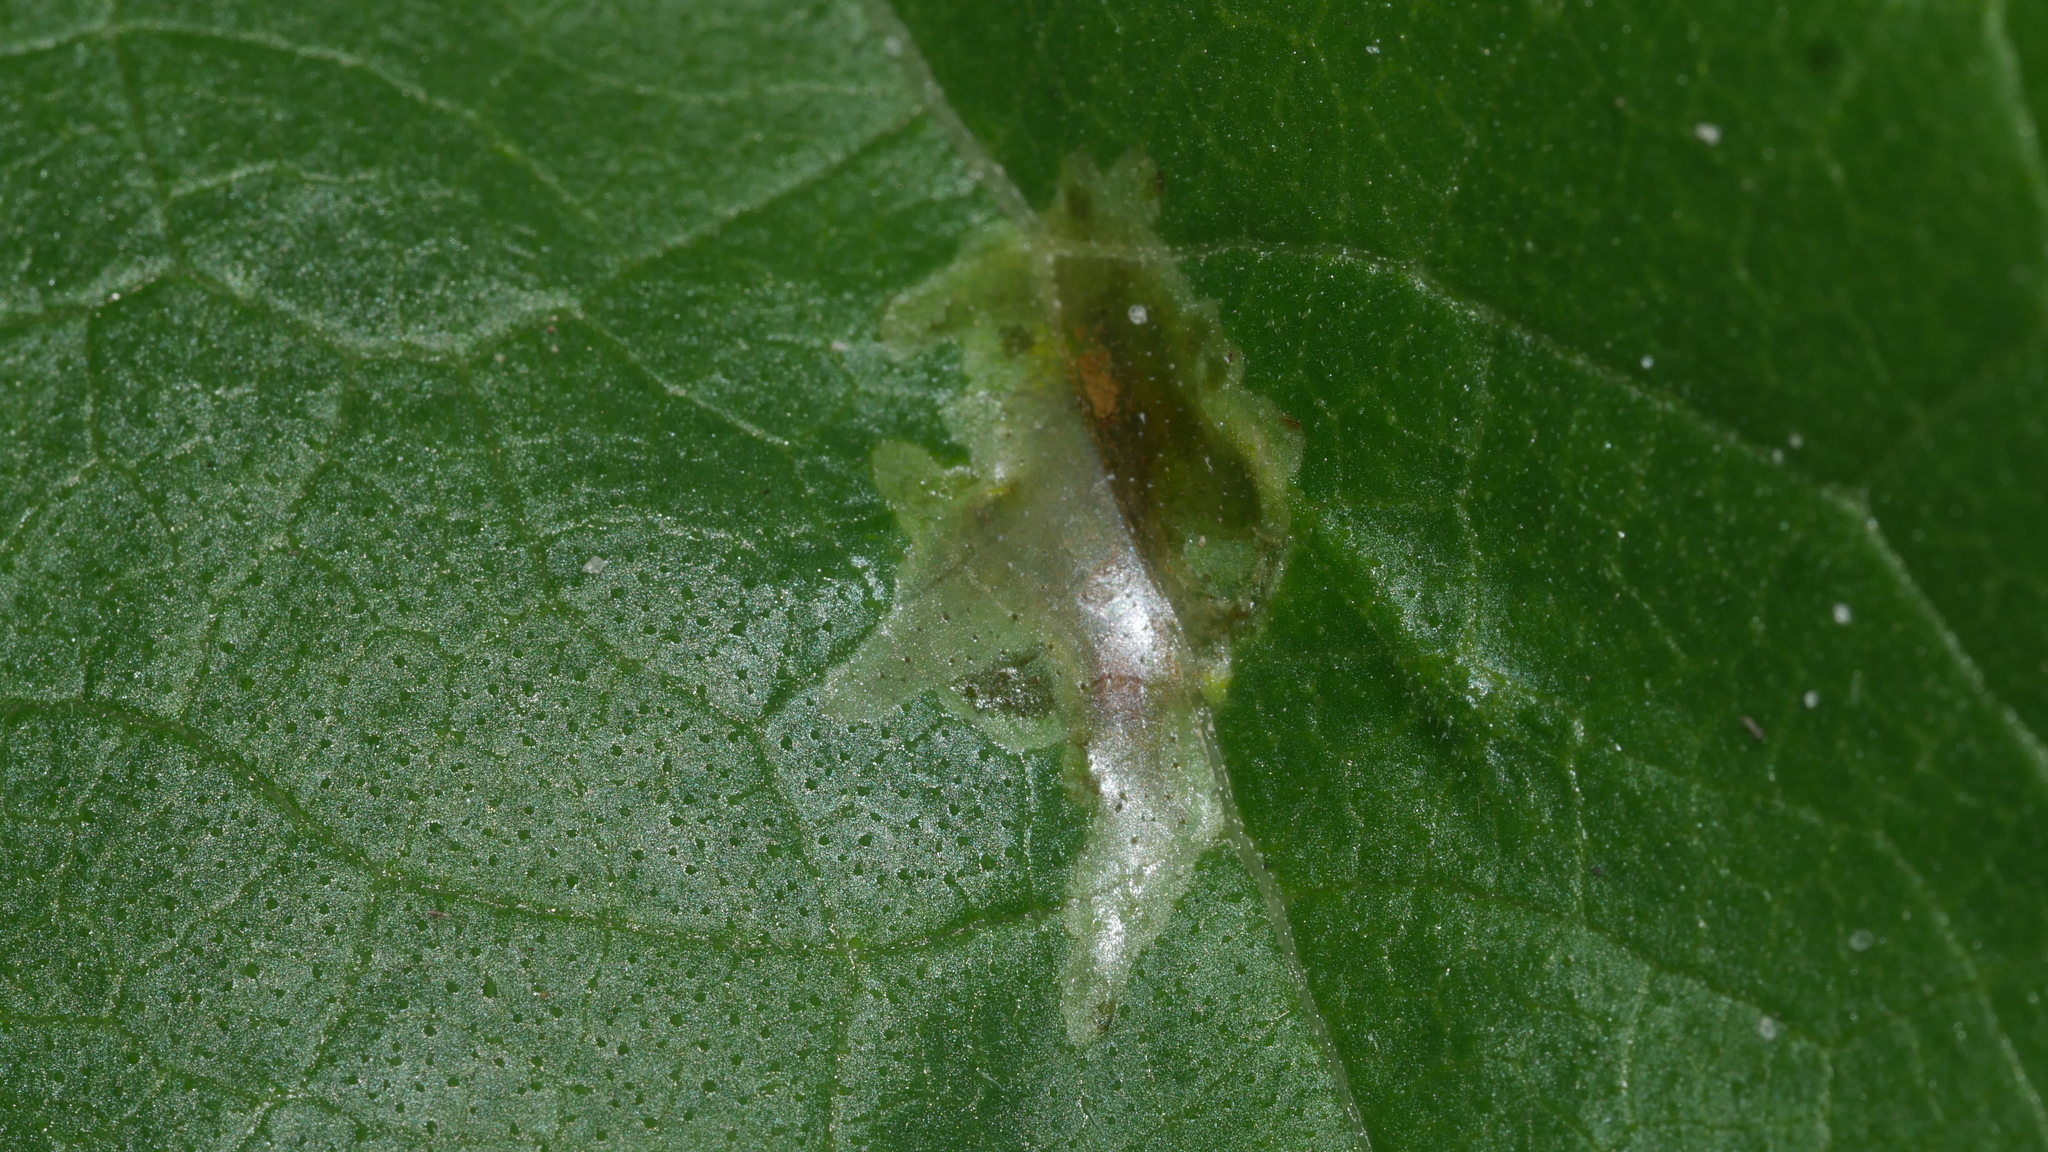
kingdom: Animalia
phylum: Arthropoda
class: Insecta
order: Diptera
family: Agromyzidae
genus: Calycomyza
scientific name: Calycomyza platyptera
